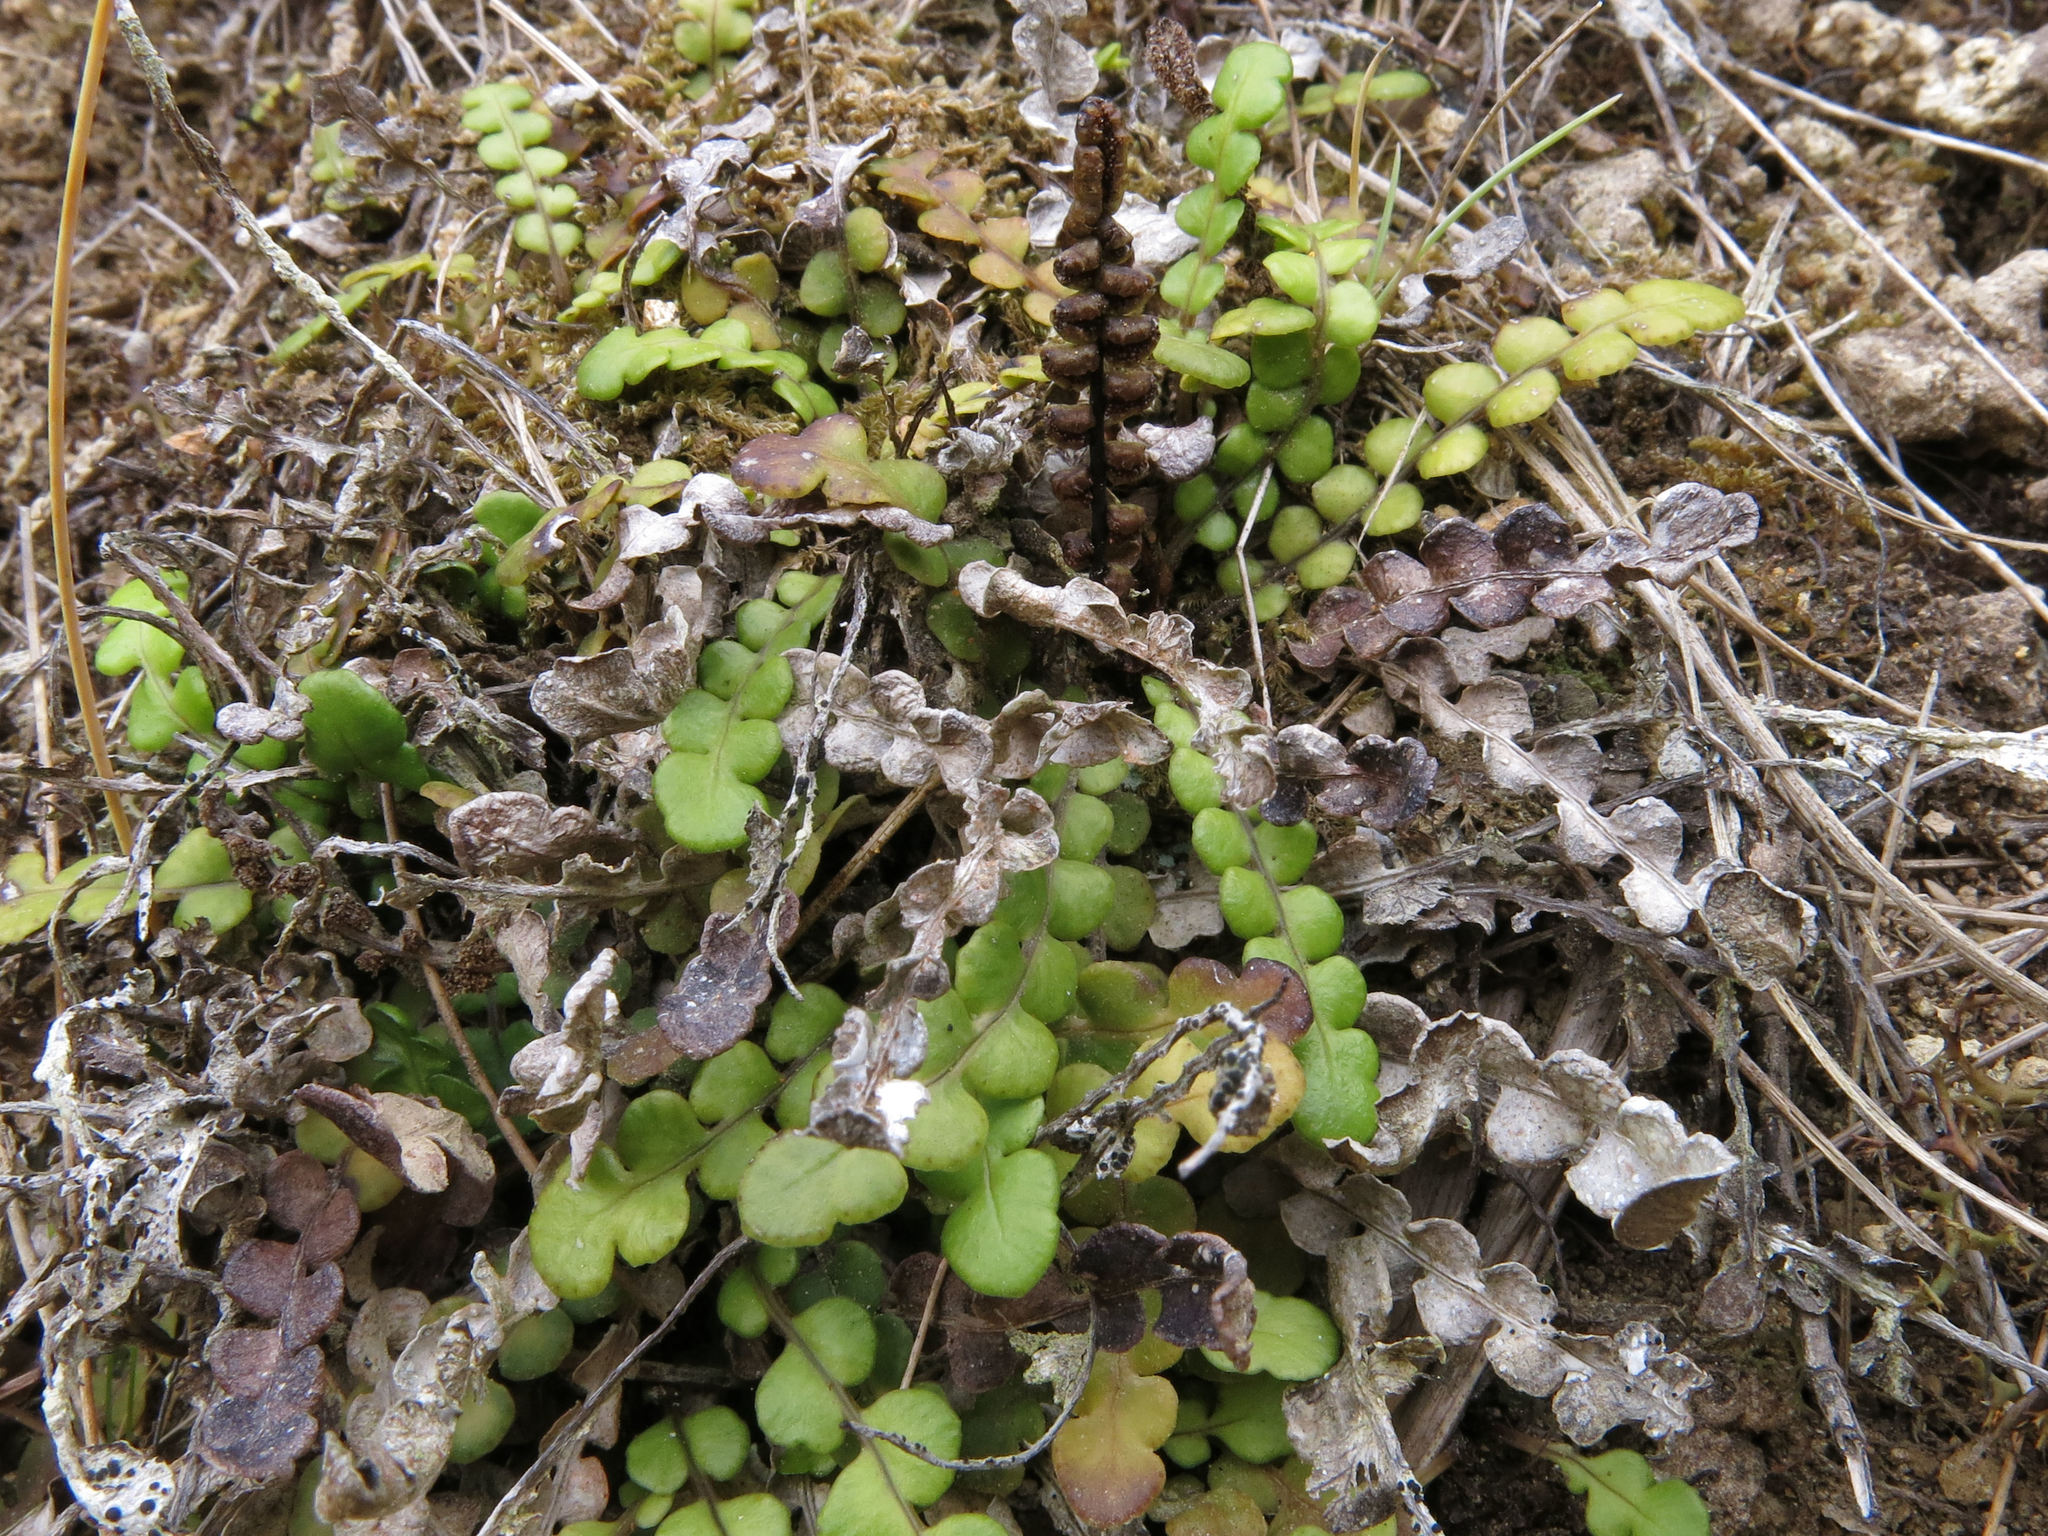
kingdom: Plantae
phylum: Tracheophyta
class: Polypodiopsida
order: Polypodiales
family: Blechnaceae
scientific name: Blechnaceae
